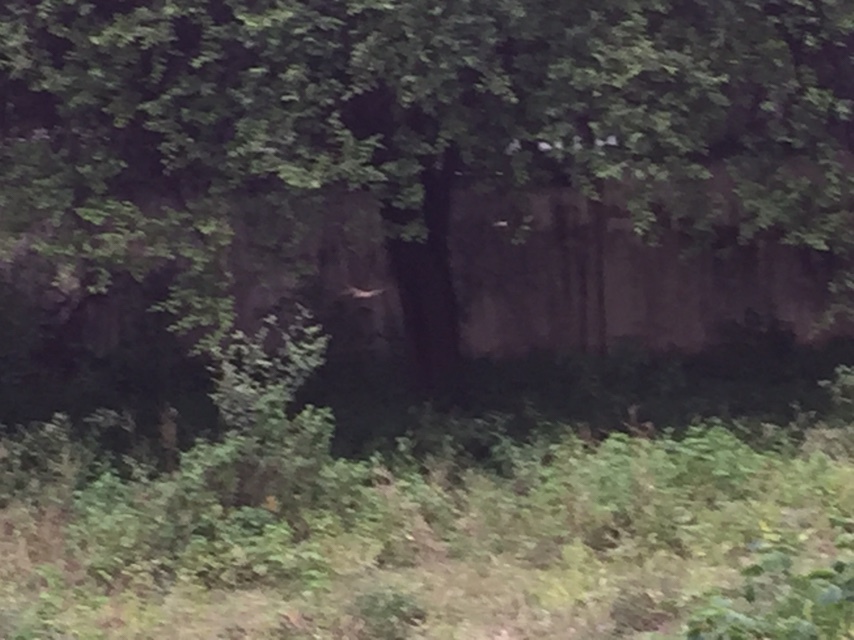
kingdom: Animalia
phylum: Arthropoda
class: Insecta
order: Odonata
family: Libellulidae
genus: Pantala
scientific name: Pantala flavescens
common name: Wandering glider
